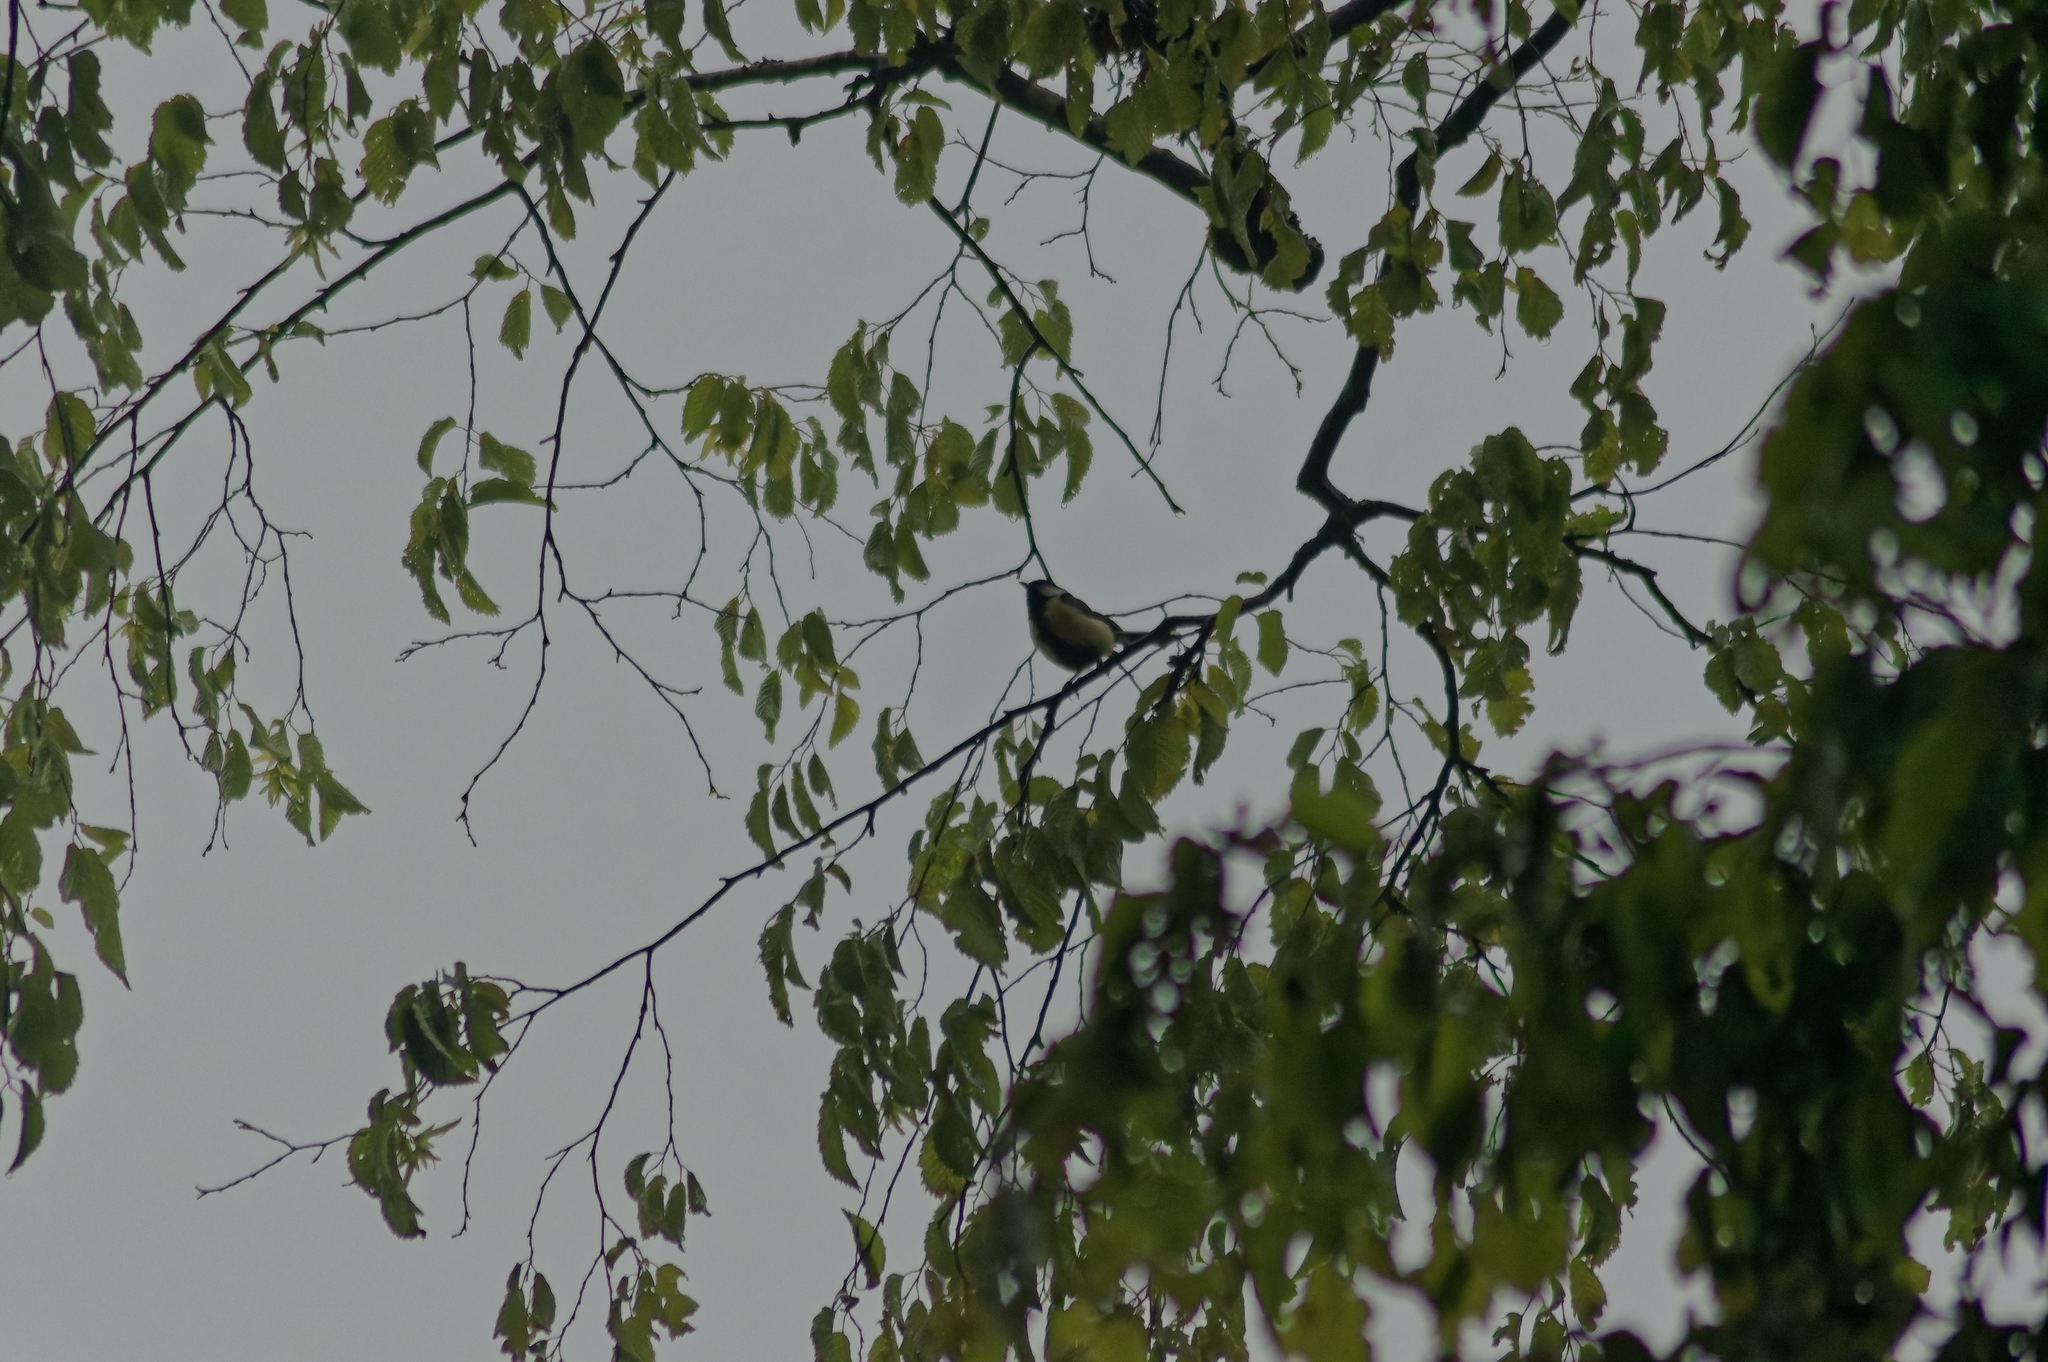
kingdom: Animalia
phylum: Chordata
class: Aves
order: Passeriformes
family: Paridae
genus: Parus
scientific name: Parus major
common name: Great tit
